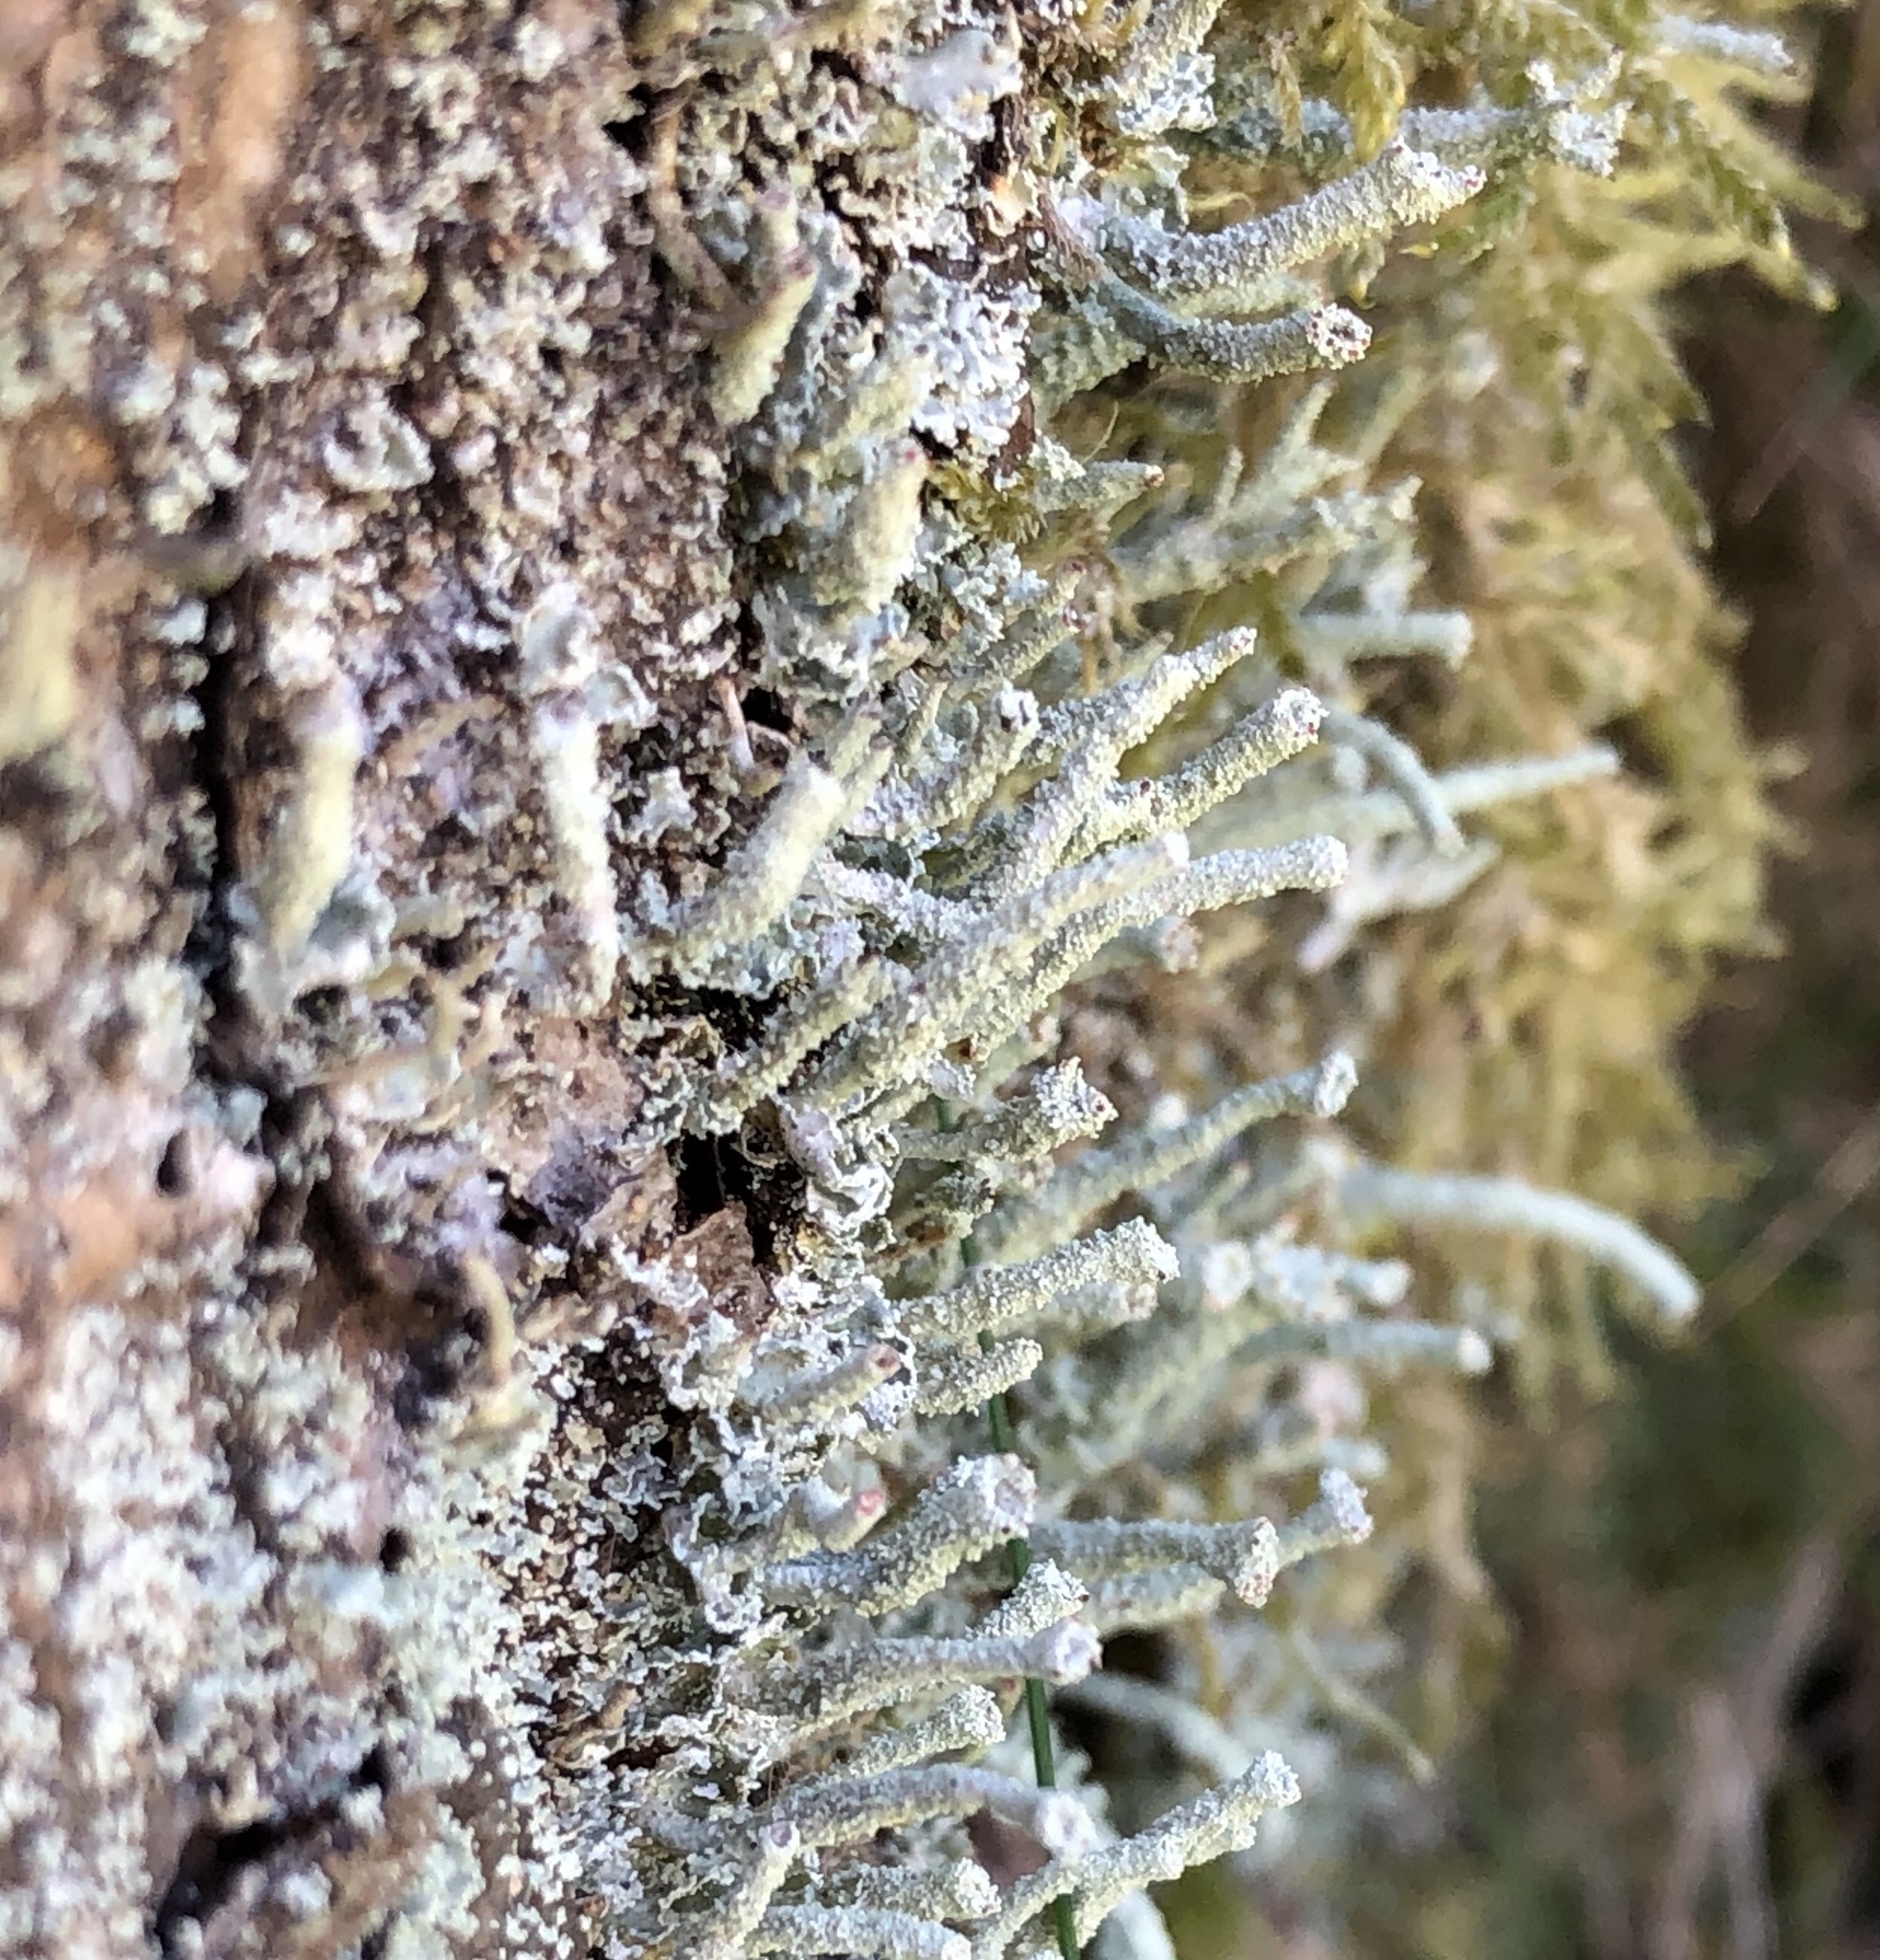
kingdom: Fungi
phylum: Ascomycota
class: Lecanoromycetes
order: Lecanorales
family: Cladoniaceae
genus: Cladonia
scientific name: Cladonia polydactyla
